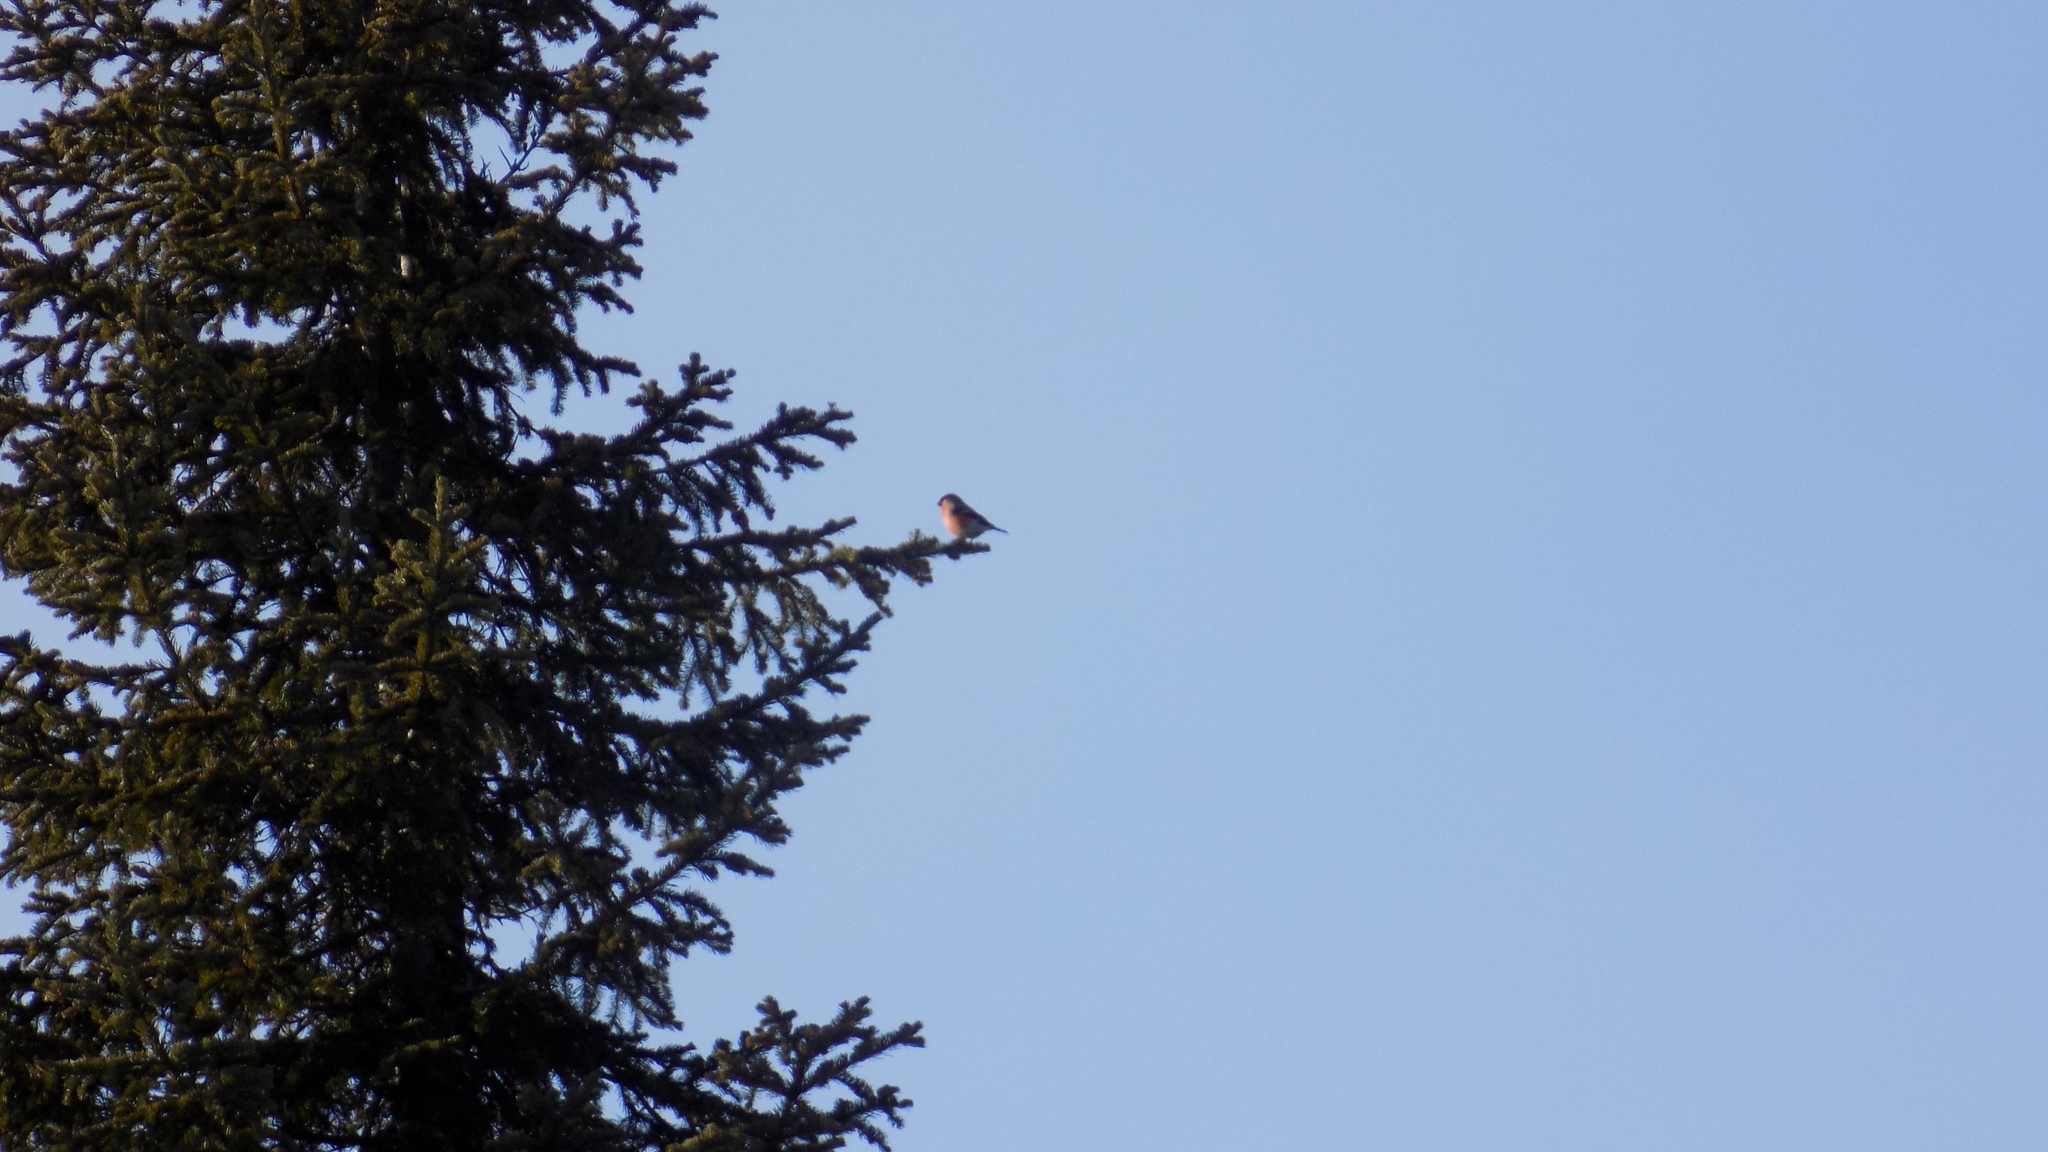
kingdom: Animalia
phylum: Chordata
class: Aves
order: Passeriformes
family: Fringillidae
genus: Pyrrhula
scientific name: Pyrrhula pyrrhula
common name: Eurasian bullfinch
